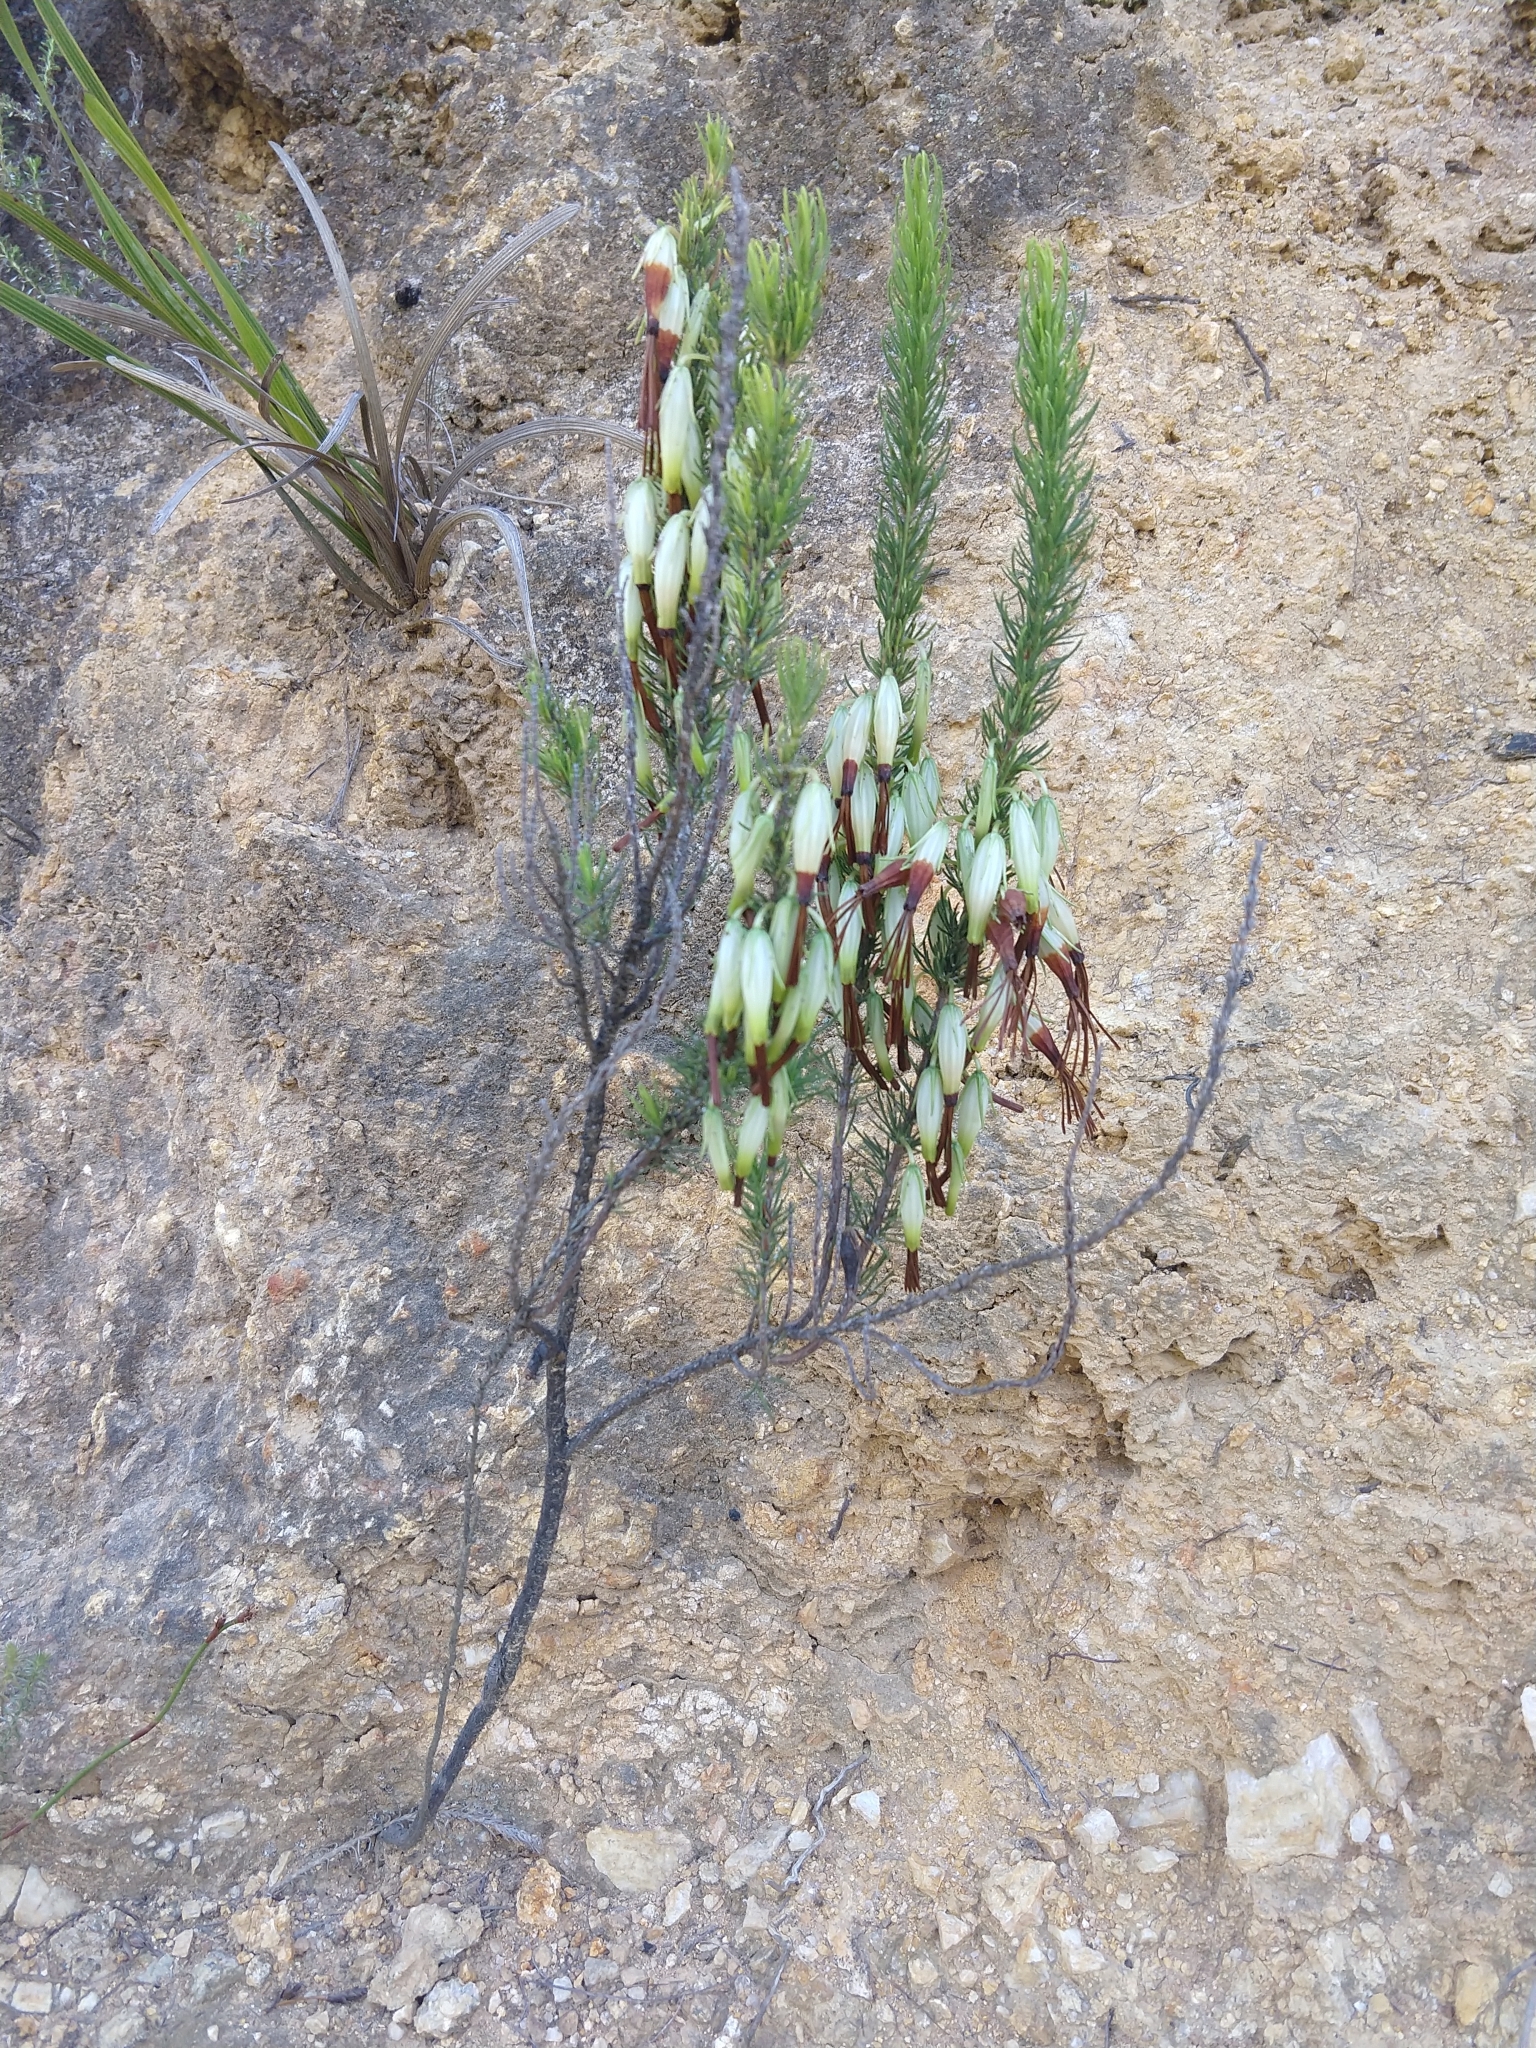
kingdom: Plantae
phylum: Tracheophyta
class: Magnoliopsida
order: Ericales
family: Ericaceae
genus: Erica
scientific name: Erica plukenetii
